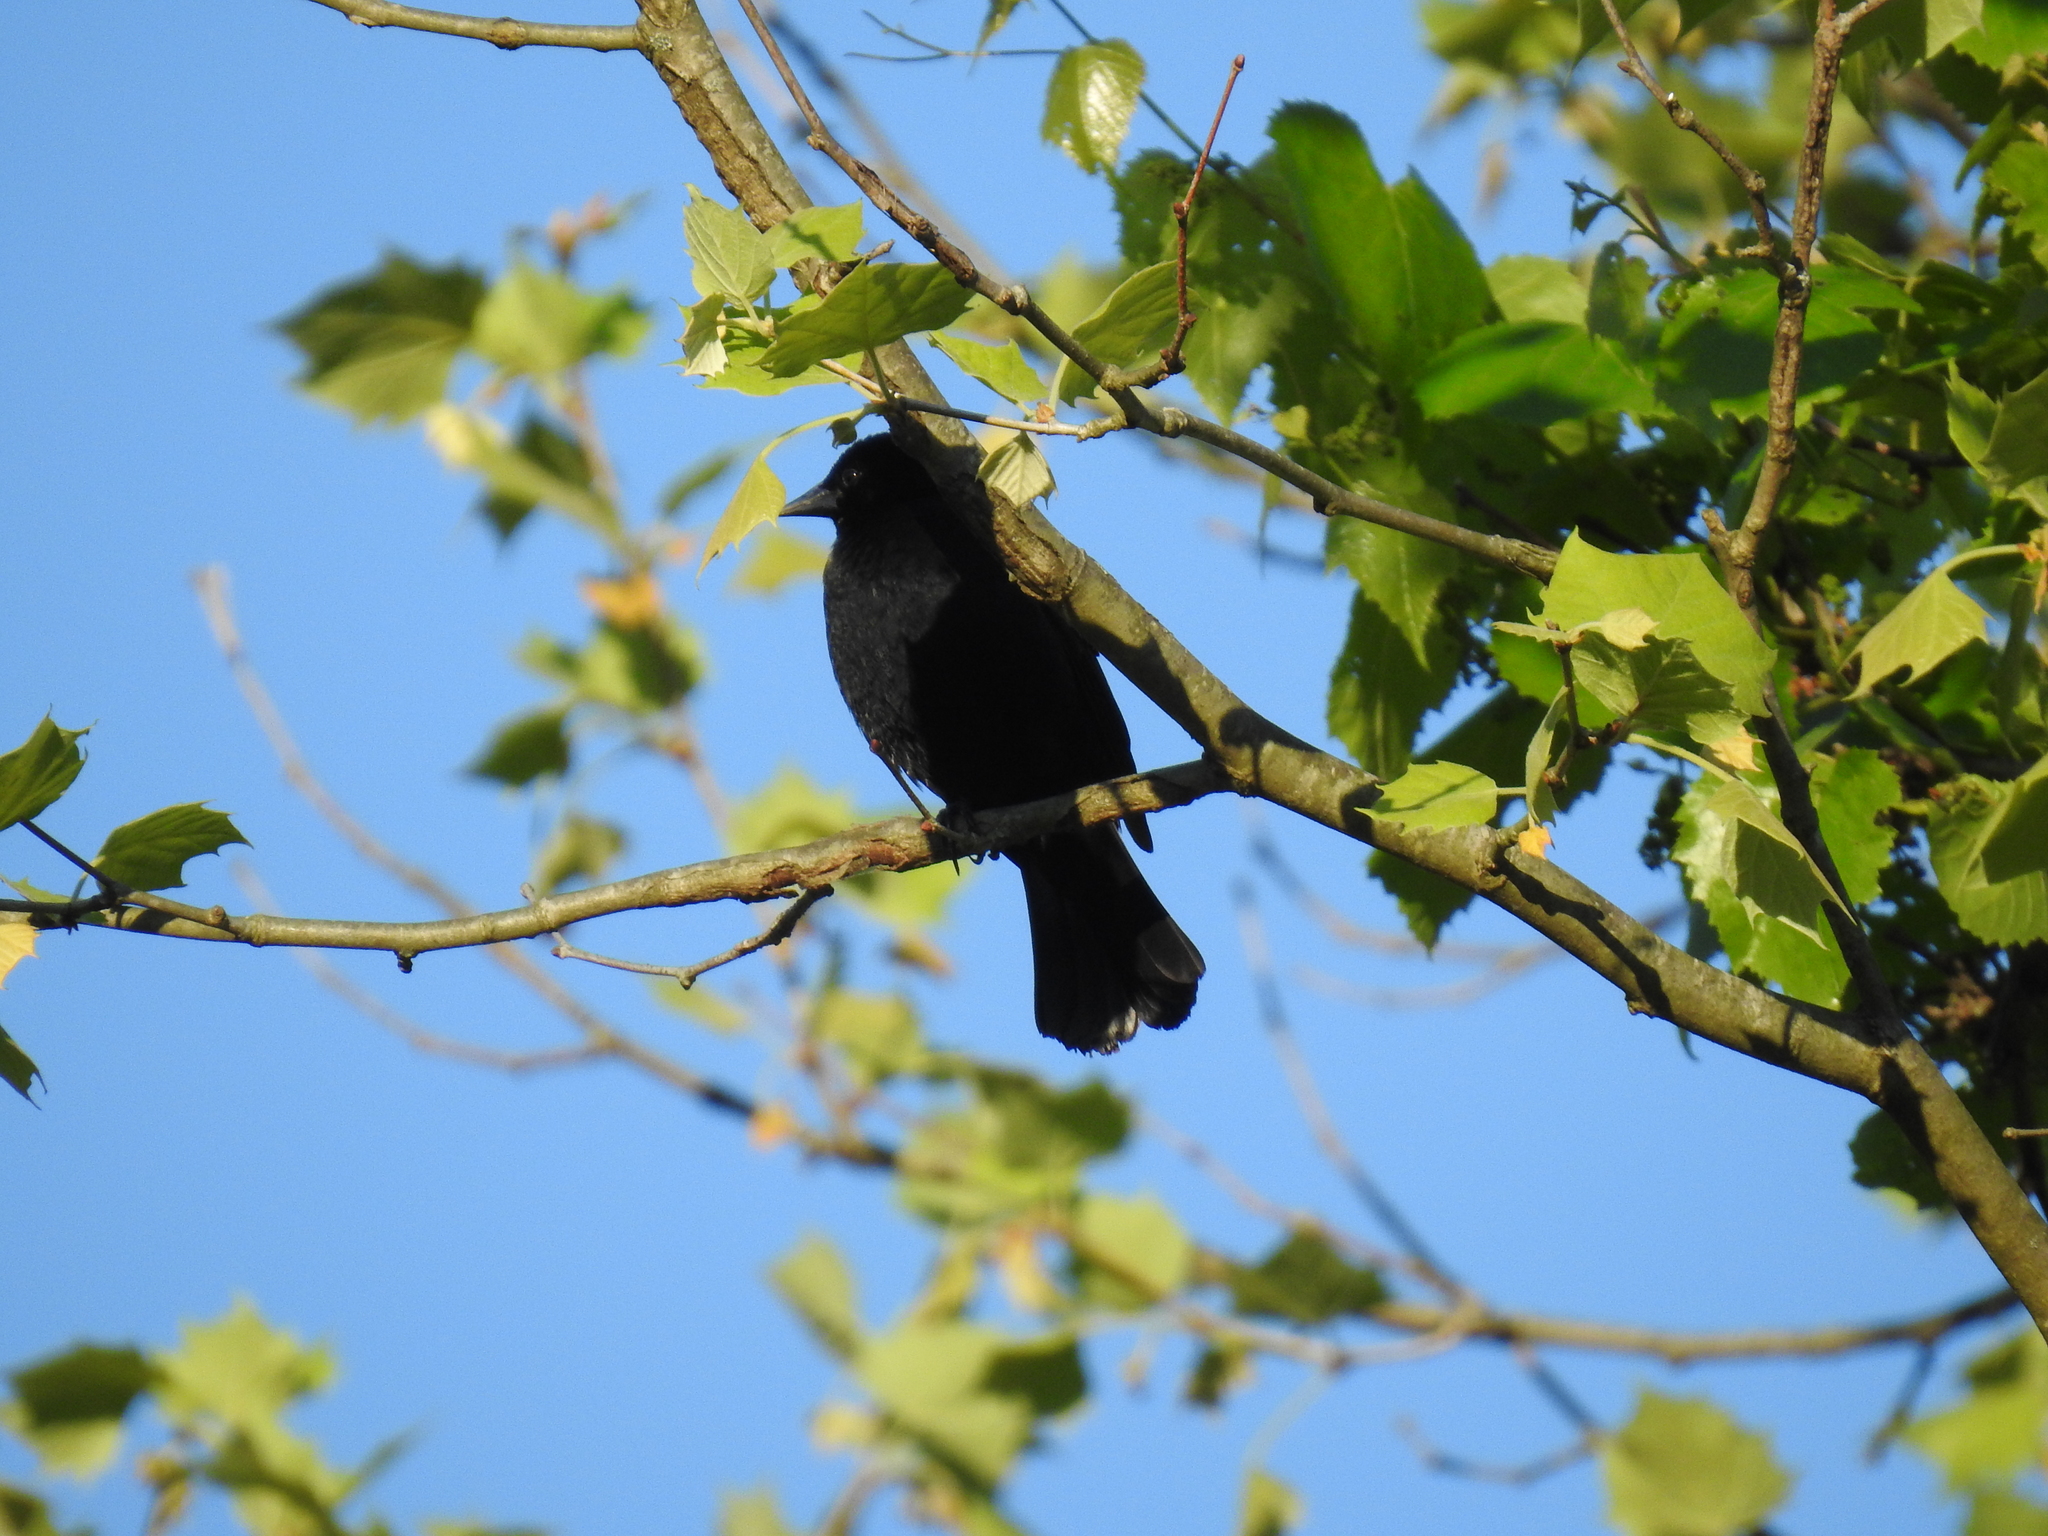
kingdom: Animalia
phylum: Chordata
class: Aves
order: Passeriformes
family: Icteridae
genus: Agelaius
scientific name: Agelaius phoeniceus
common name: Red-winged blackbird
